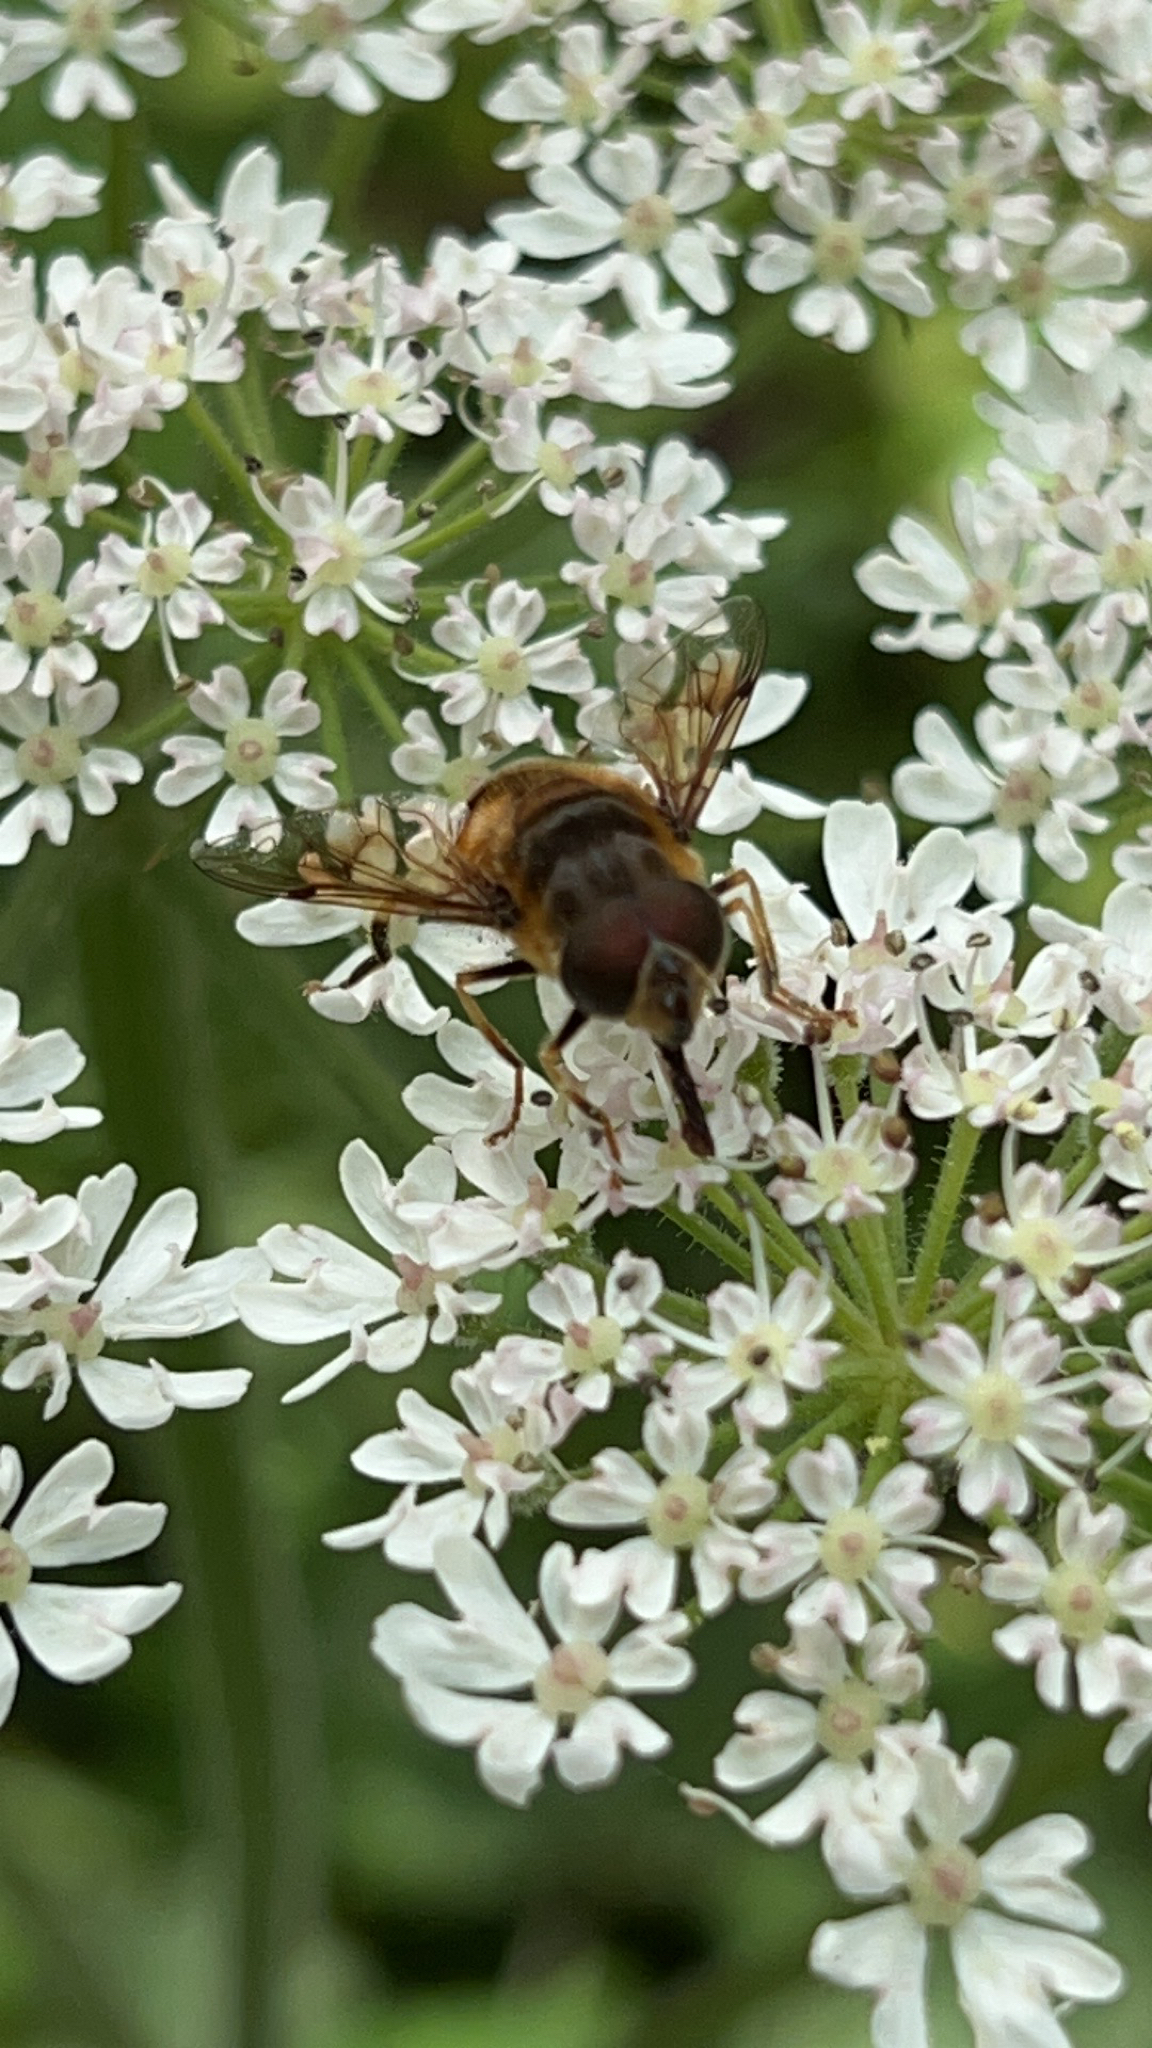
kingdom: Animalia
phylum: Arthropoda
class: Insecta
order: Diptera
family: Syrphidae
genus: Eristalis
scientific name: Eristalis pertinax
